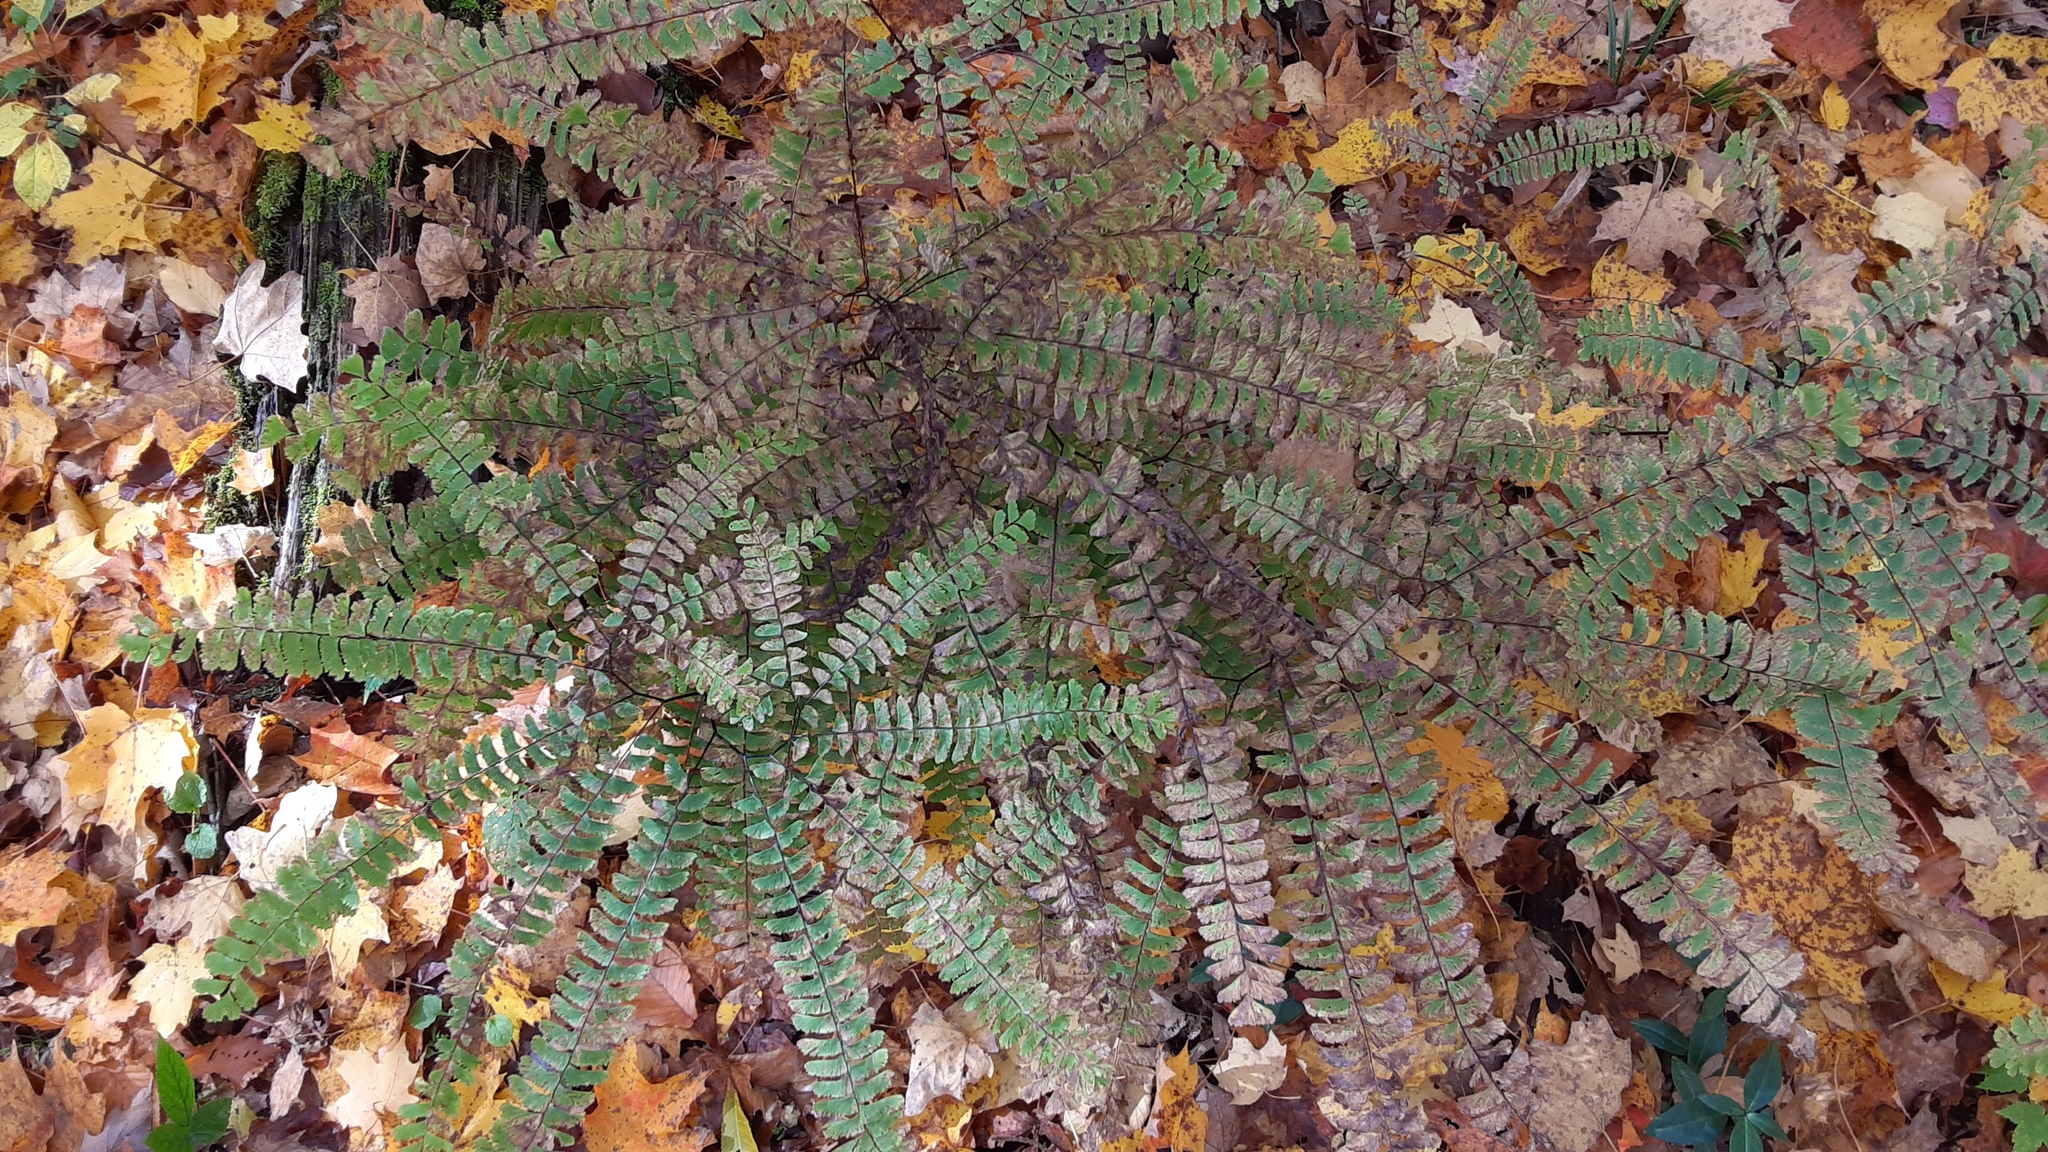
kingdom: Plantae
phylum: Tracheophyta
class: Polypodiopsida
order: Polypodiales
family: Pteridaceae
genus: Adiantum
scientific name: Adiantum pedatum
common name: Five-finger fern
